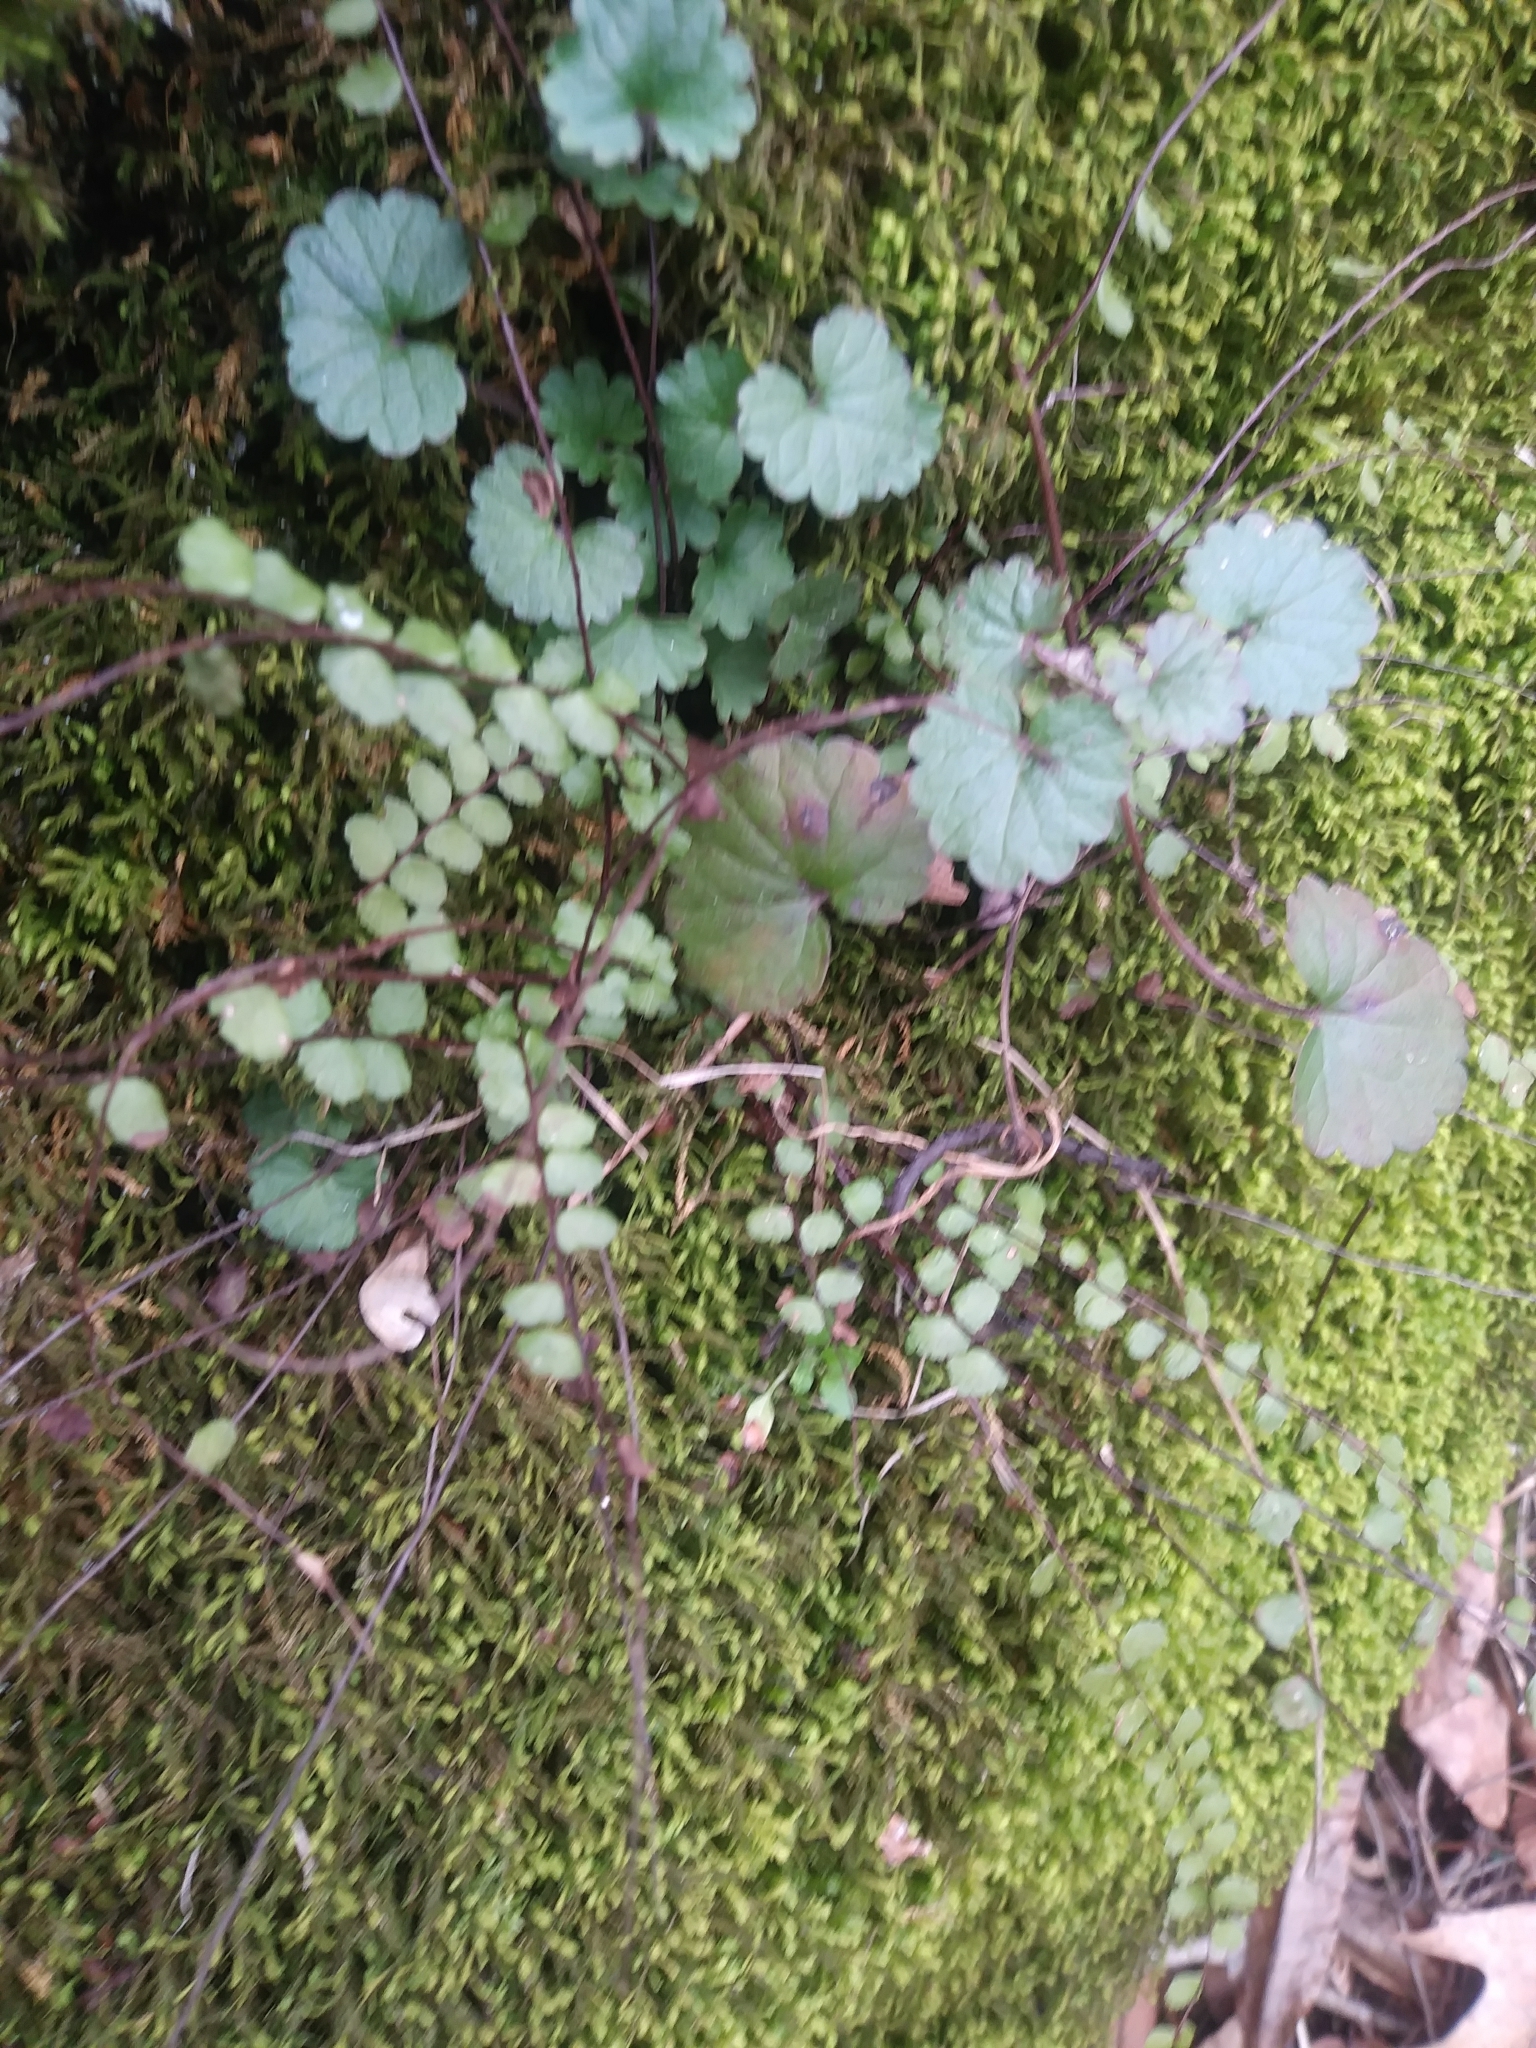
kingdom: Plantae
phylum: Tracheophyta
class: Polypodiopsida
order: Polypodiales
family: Aspleniaceae
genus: Asplenium
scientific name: Asplenium trichomanes
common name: Maidenhair spleenwort
